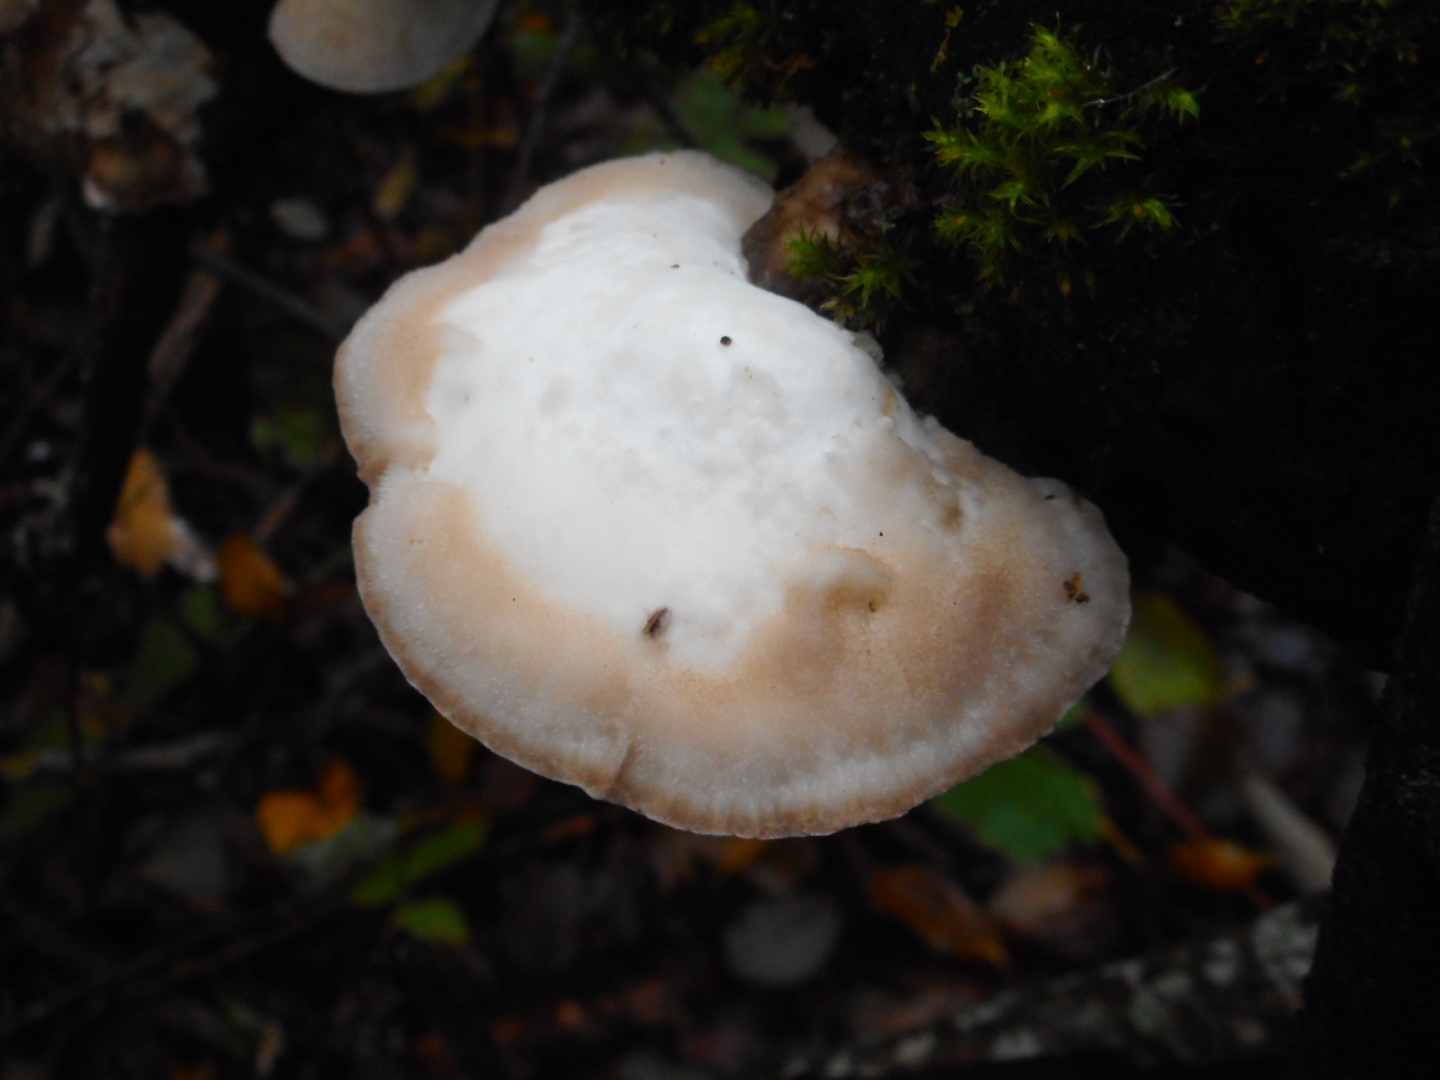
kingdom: Fungi
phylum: Basidiomycota
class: Agaricomycetes
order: Polyporales
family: Dacryobolaceae
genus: Postia
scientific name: Postia tephroleuca
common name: Greyling bracket
